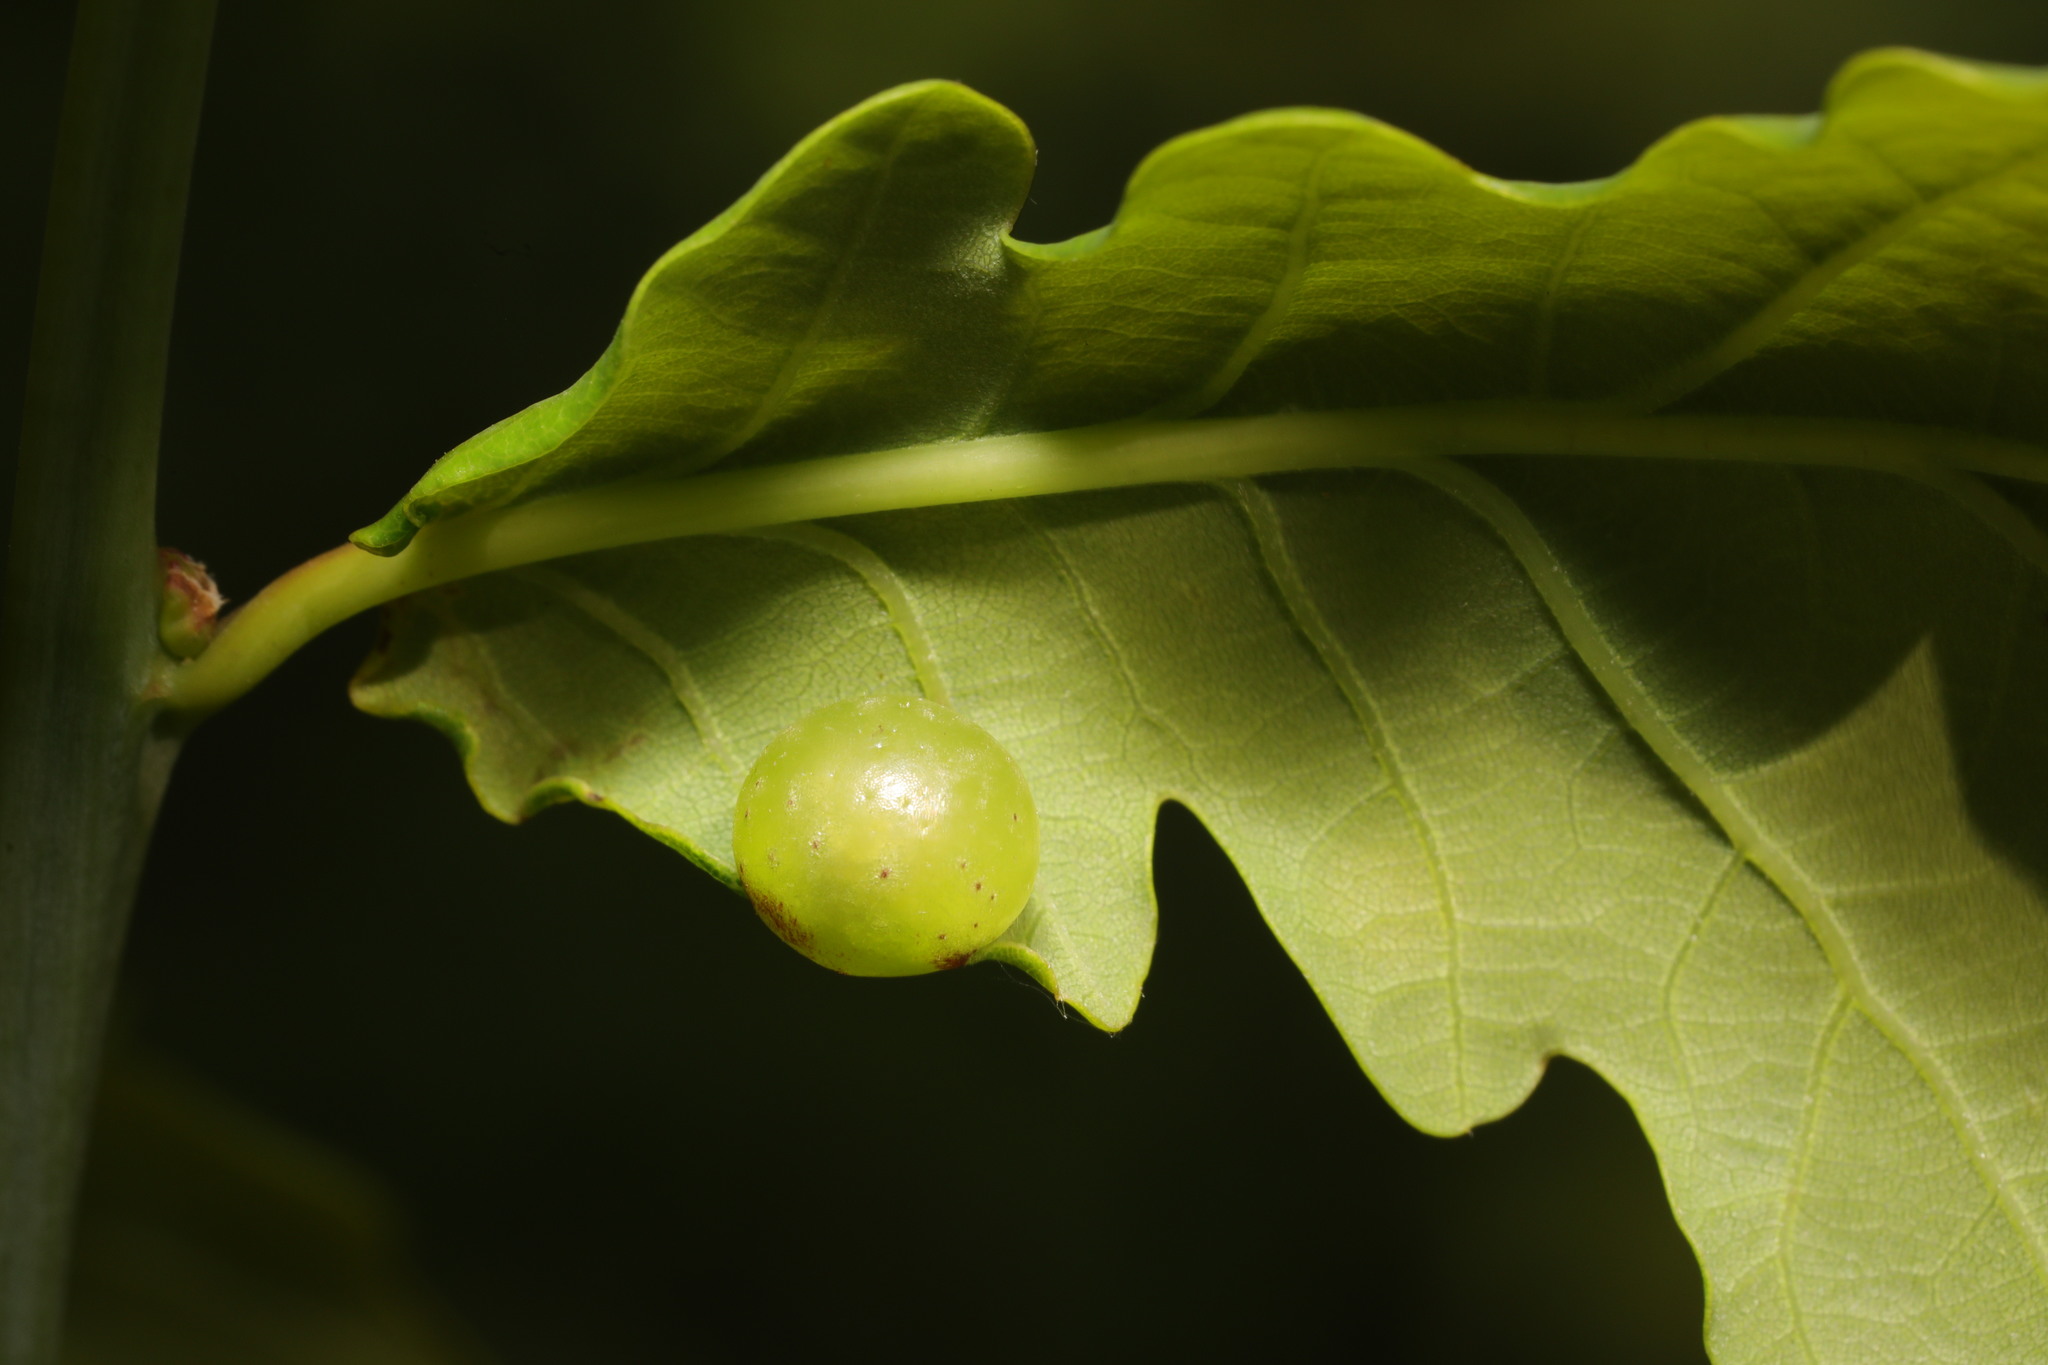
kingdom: Animalia
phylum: Arthropoda
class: Insecta
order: Hymenoptera
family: Cynipidae
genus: Neuroterus
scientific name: Neuroterus quercusbaccarum
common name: Common spangle gall
